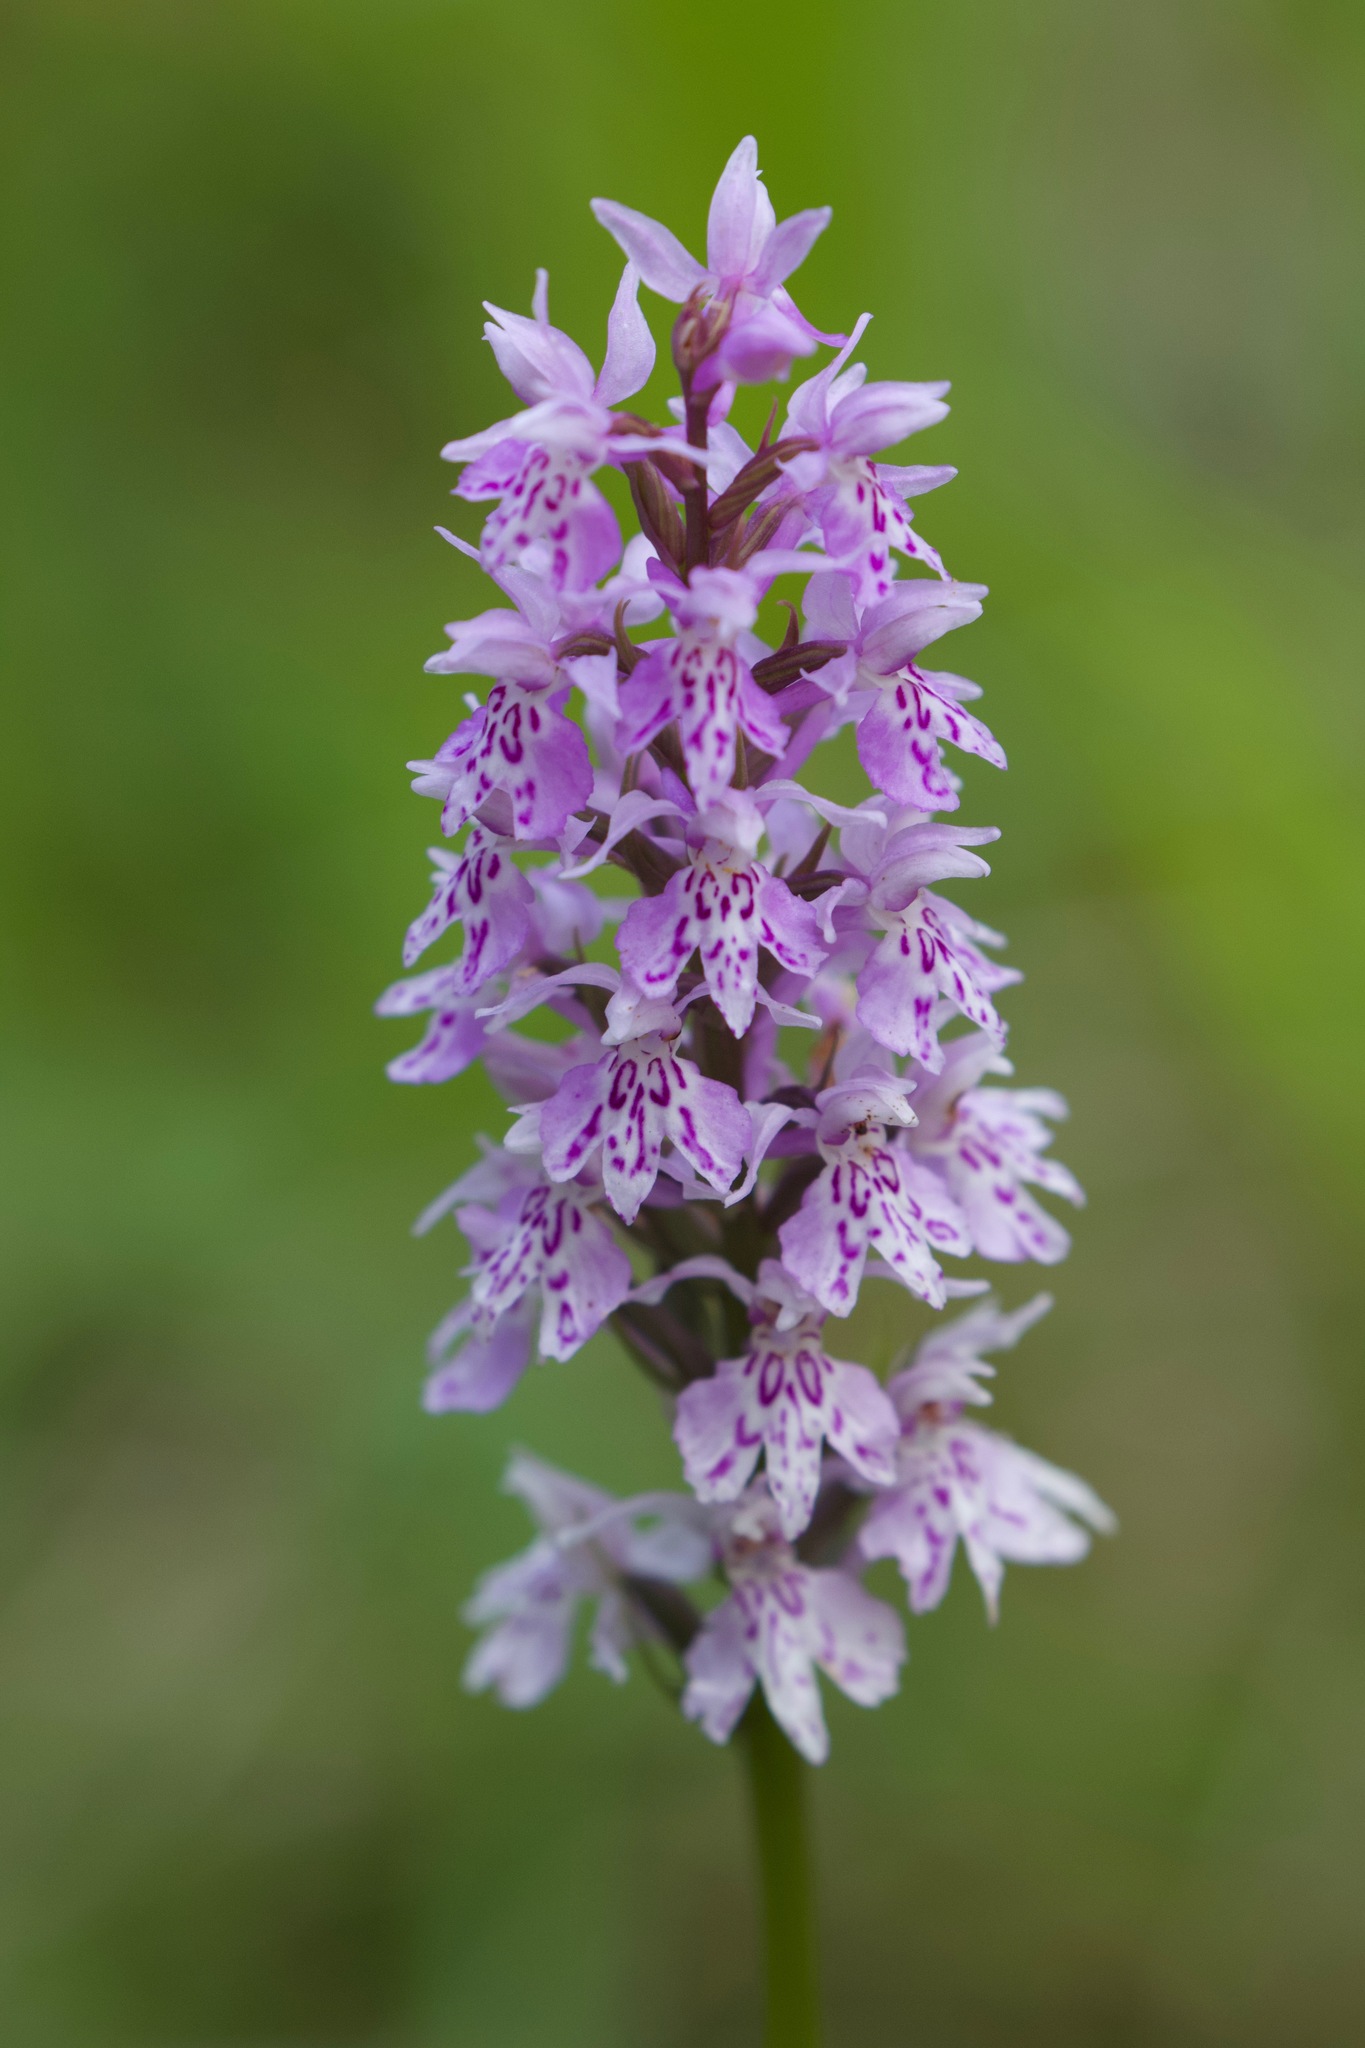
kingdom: Plantae
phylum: Tracheophyta
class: Liliopsida
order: Asparagales
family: Orchidaceae
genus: Dactylorhiza
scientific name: Dactylorhiza maculata
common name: Heath spotted-orchid
